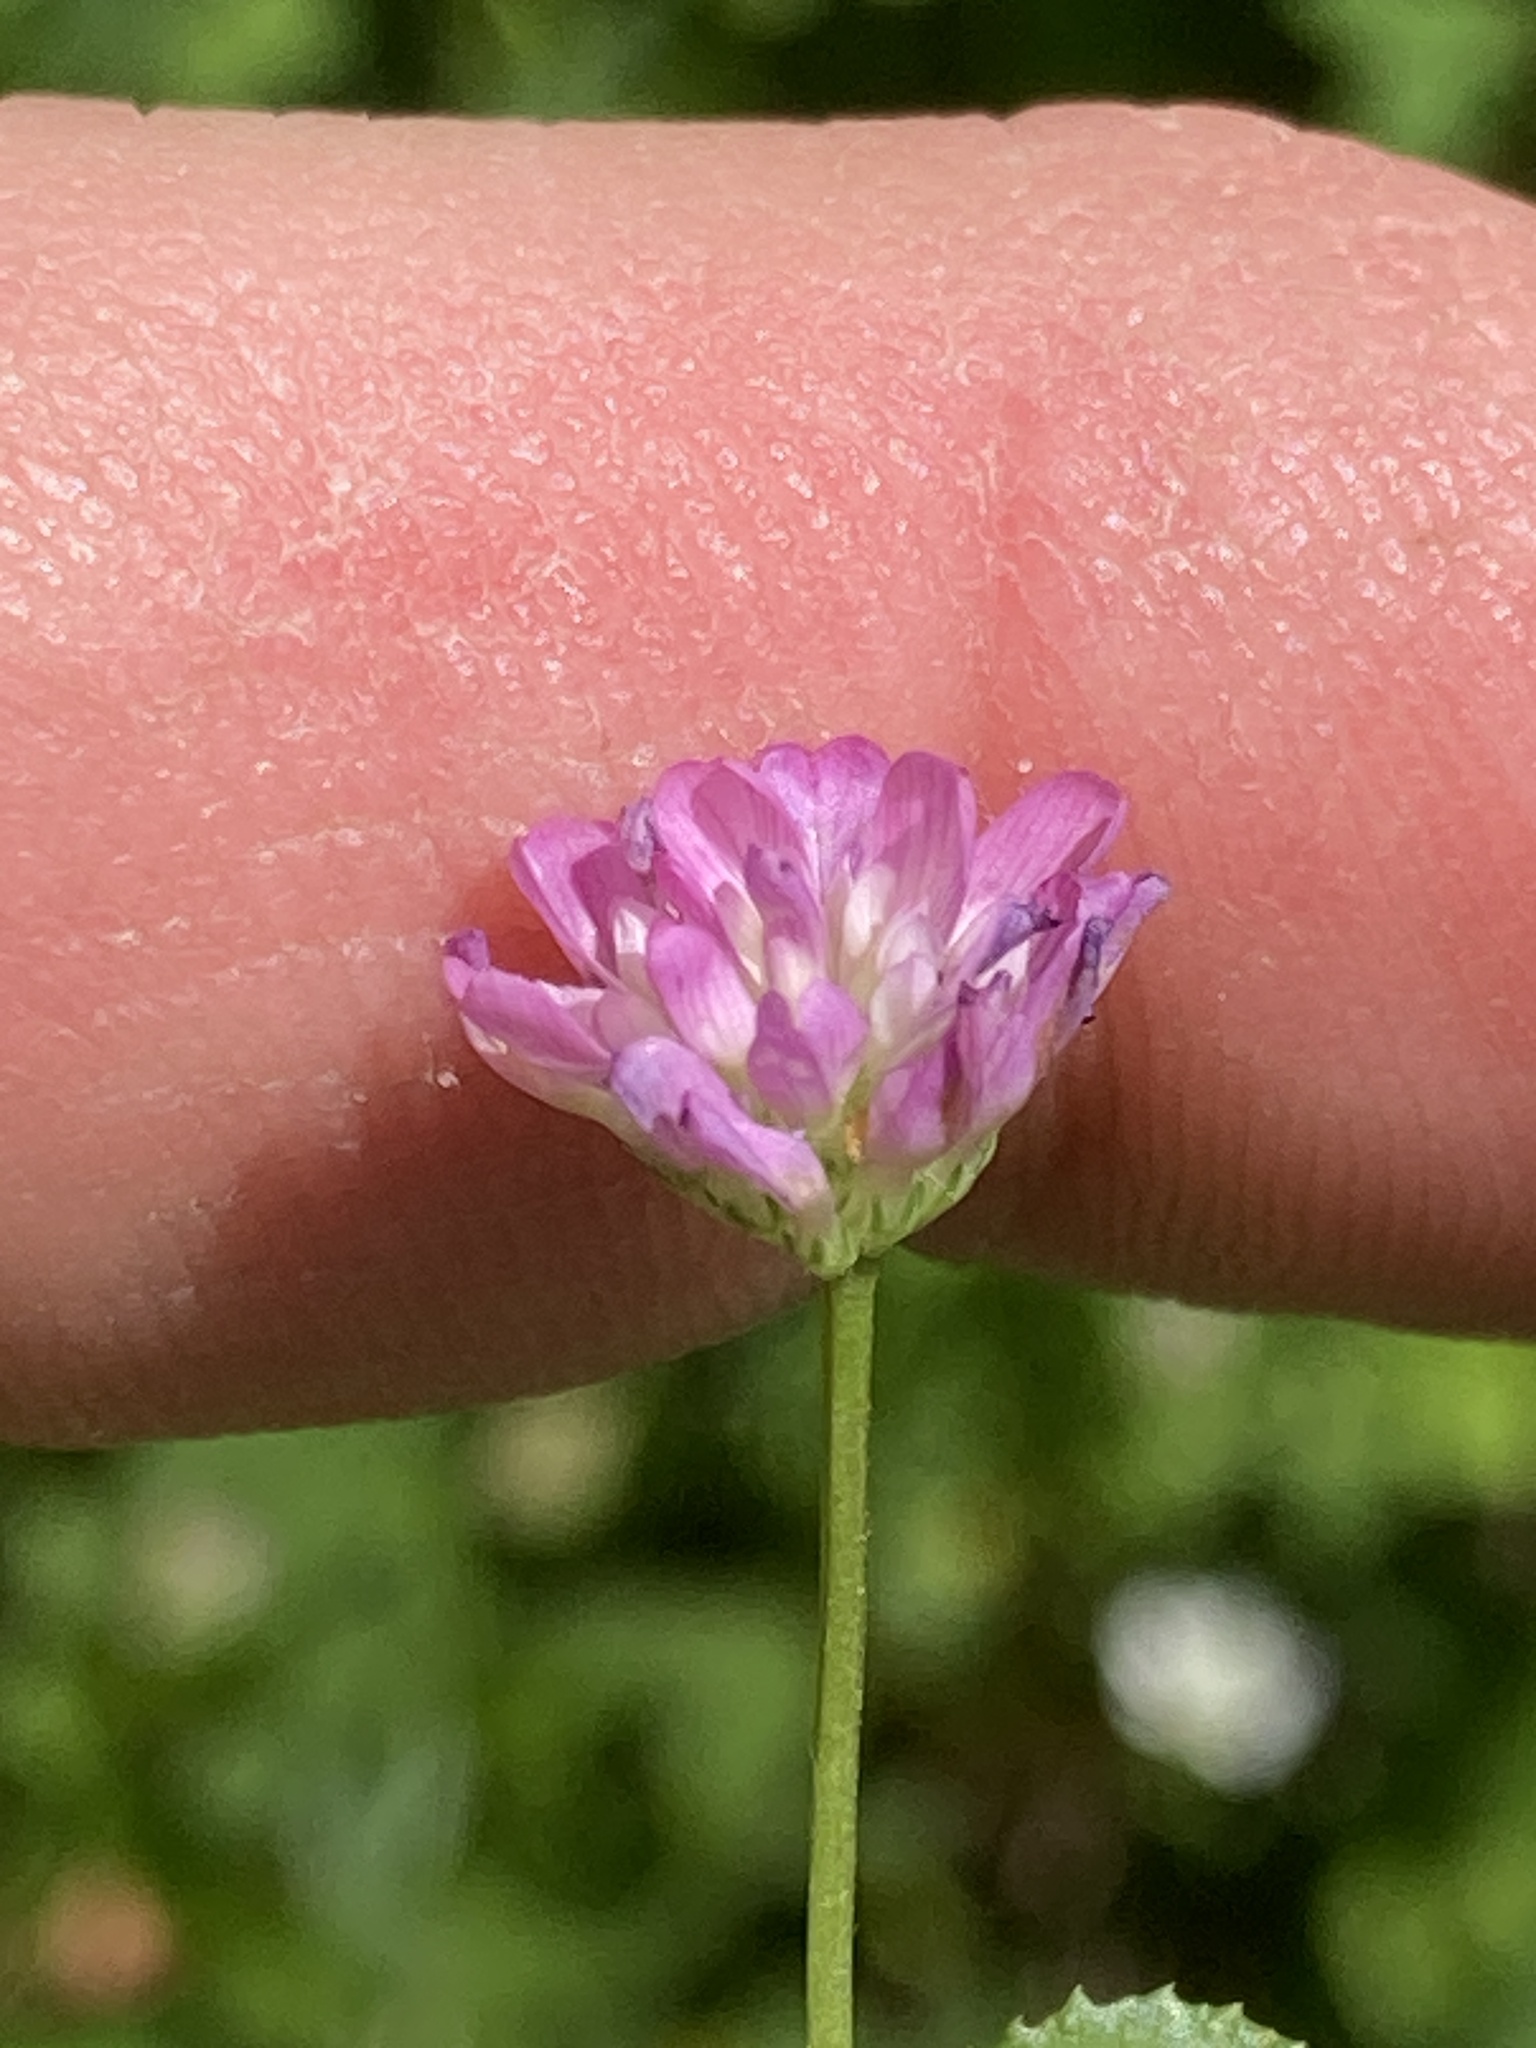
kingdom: Plantae
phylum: Tracheophyta
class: Magnoliopsida
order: Fabales
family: Fabaceae
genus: Trifolium
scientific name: Trifolium resupinatum
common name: Reversed clover
